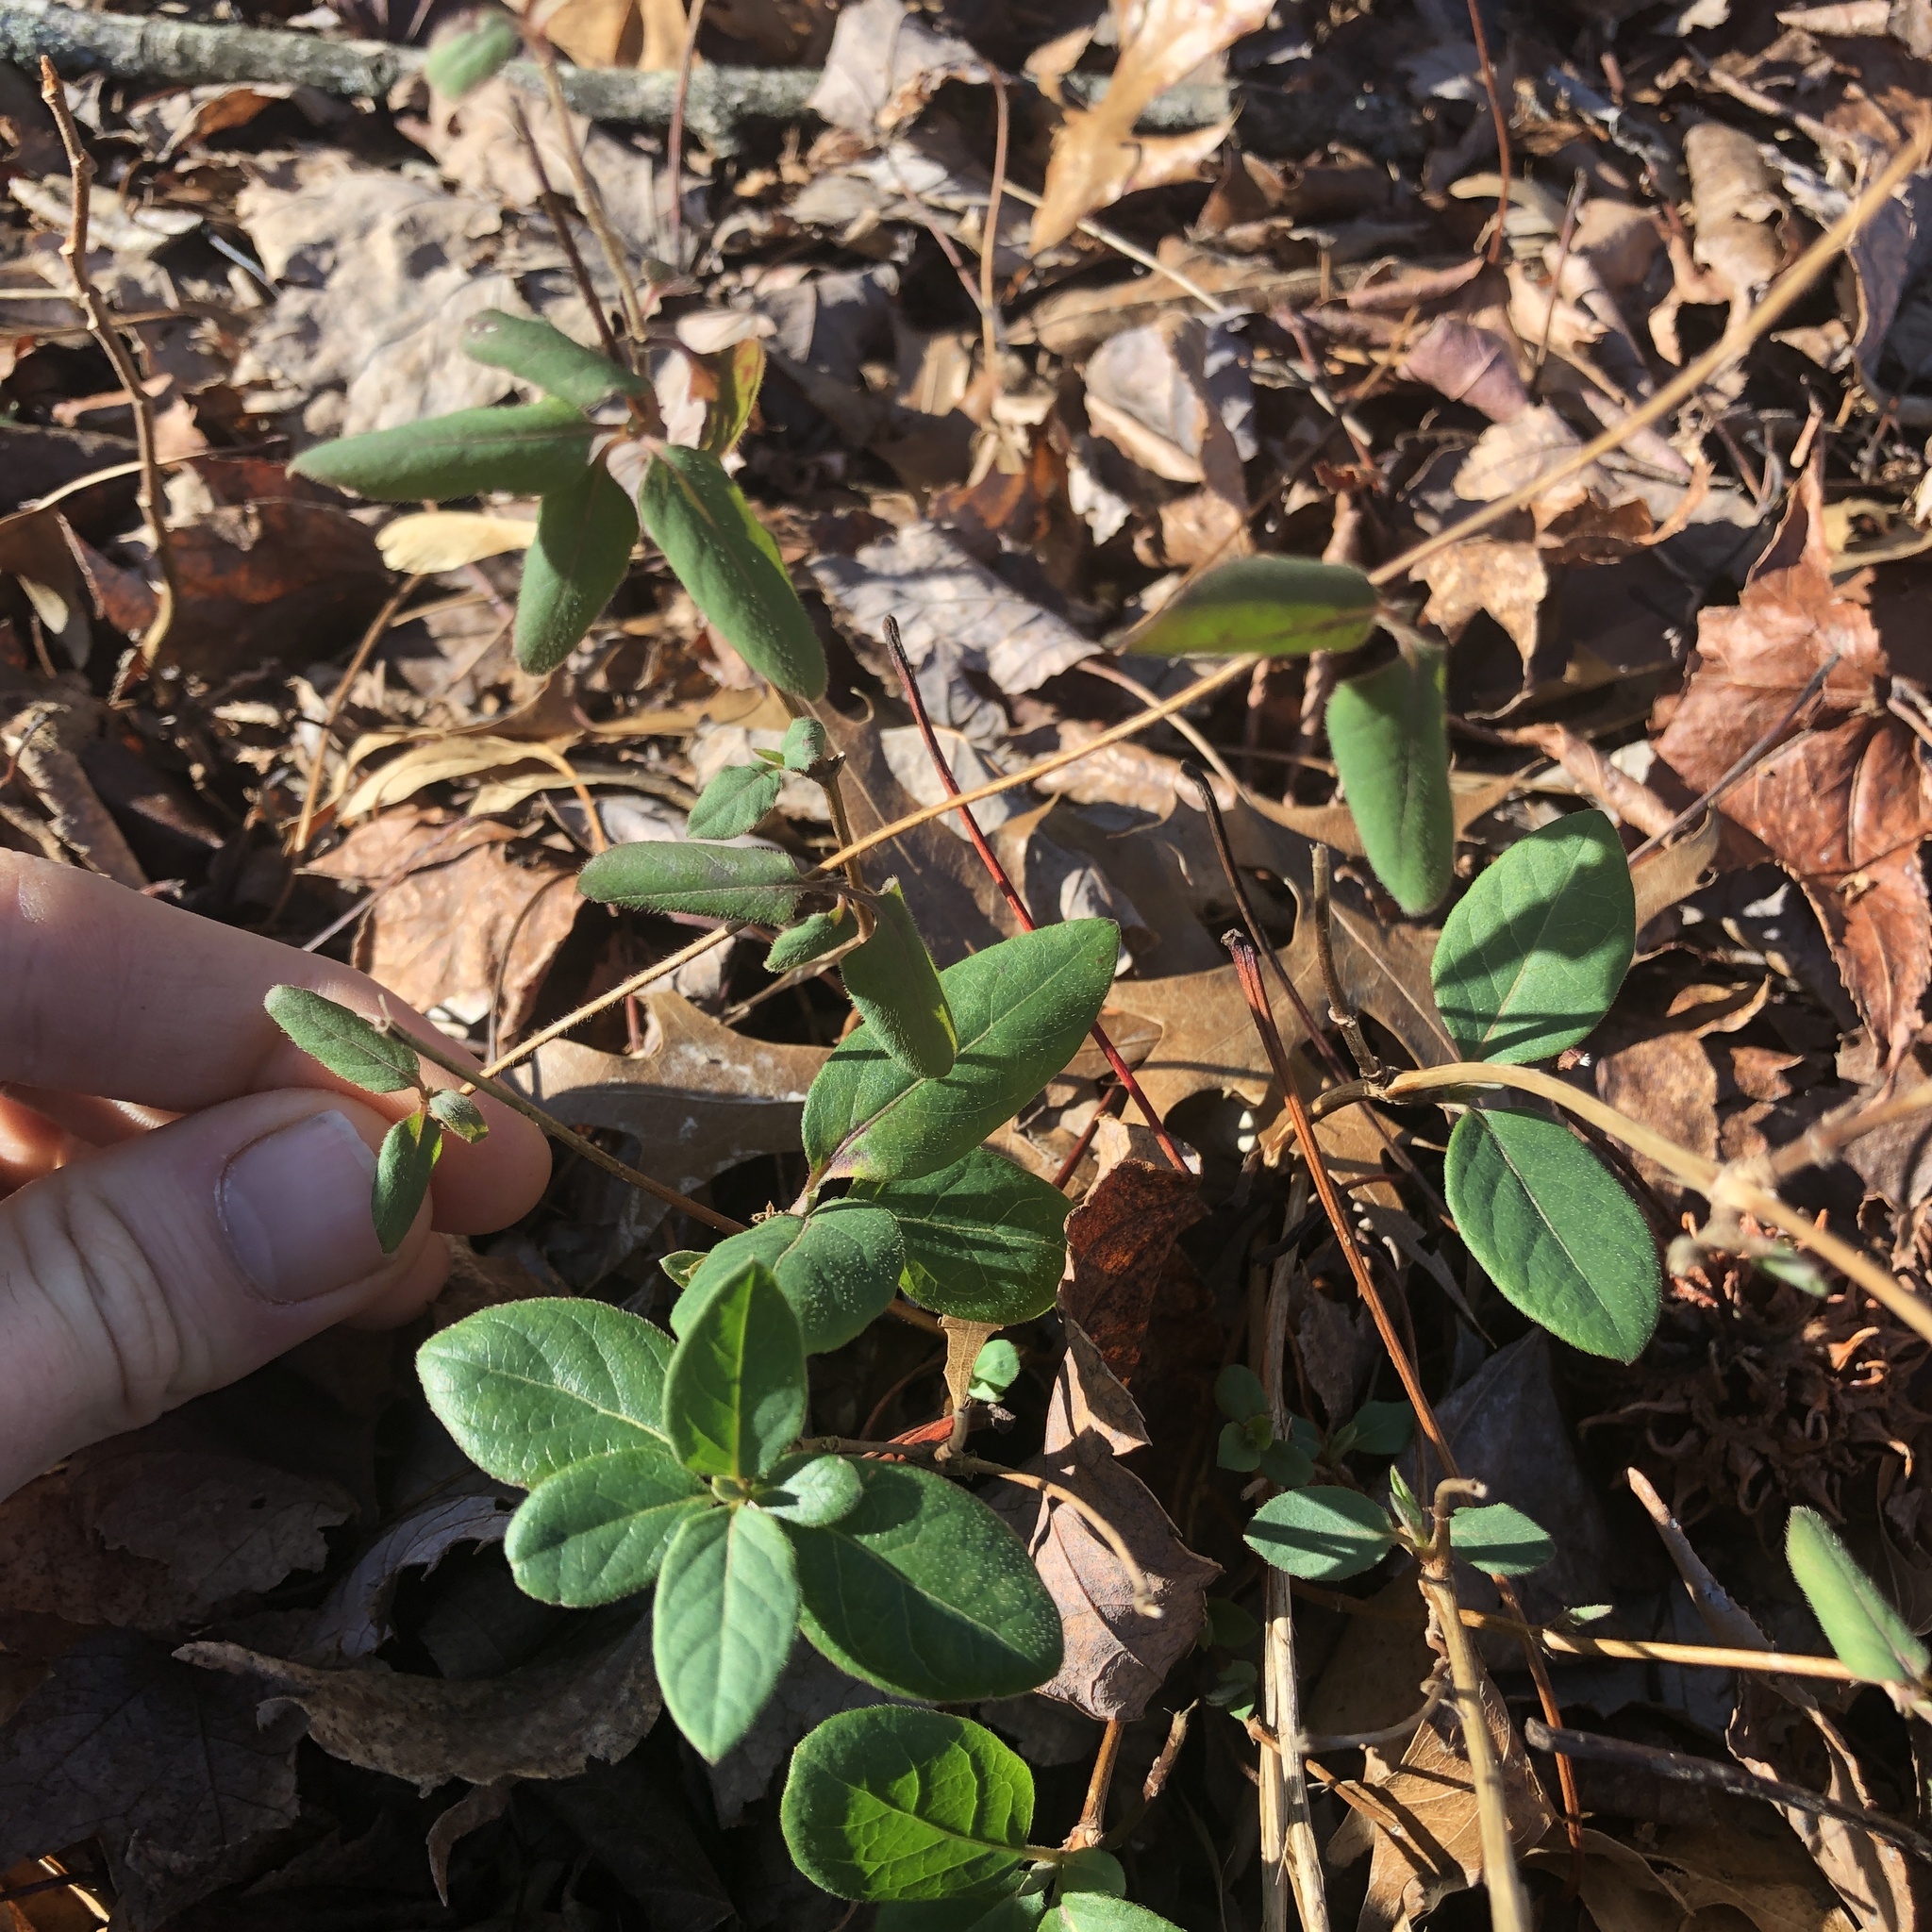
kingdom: Plantae
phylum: Tracheophyta
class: Magnoliopsida
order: Dipsacales
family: Caprifoliaceae
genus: Lonicera
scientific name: Lonicera japonica
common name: Japanese honeysuckle
